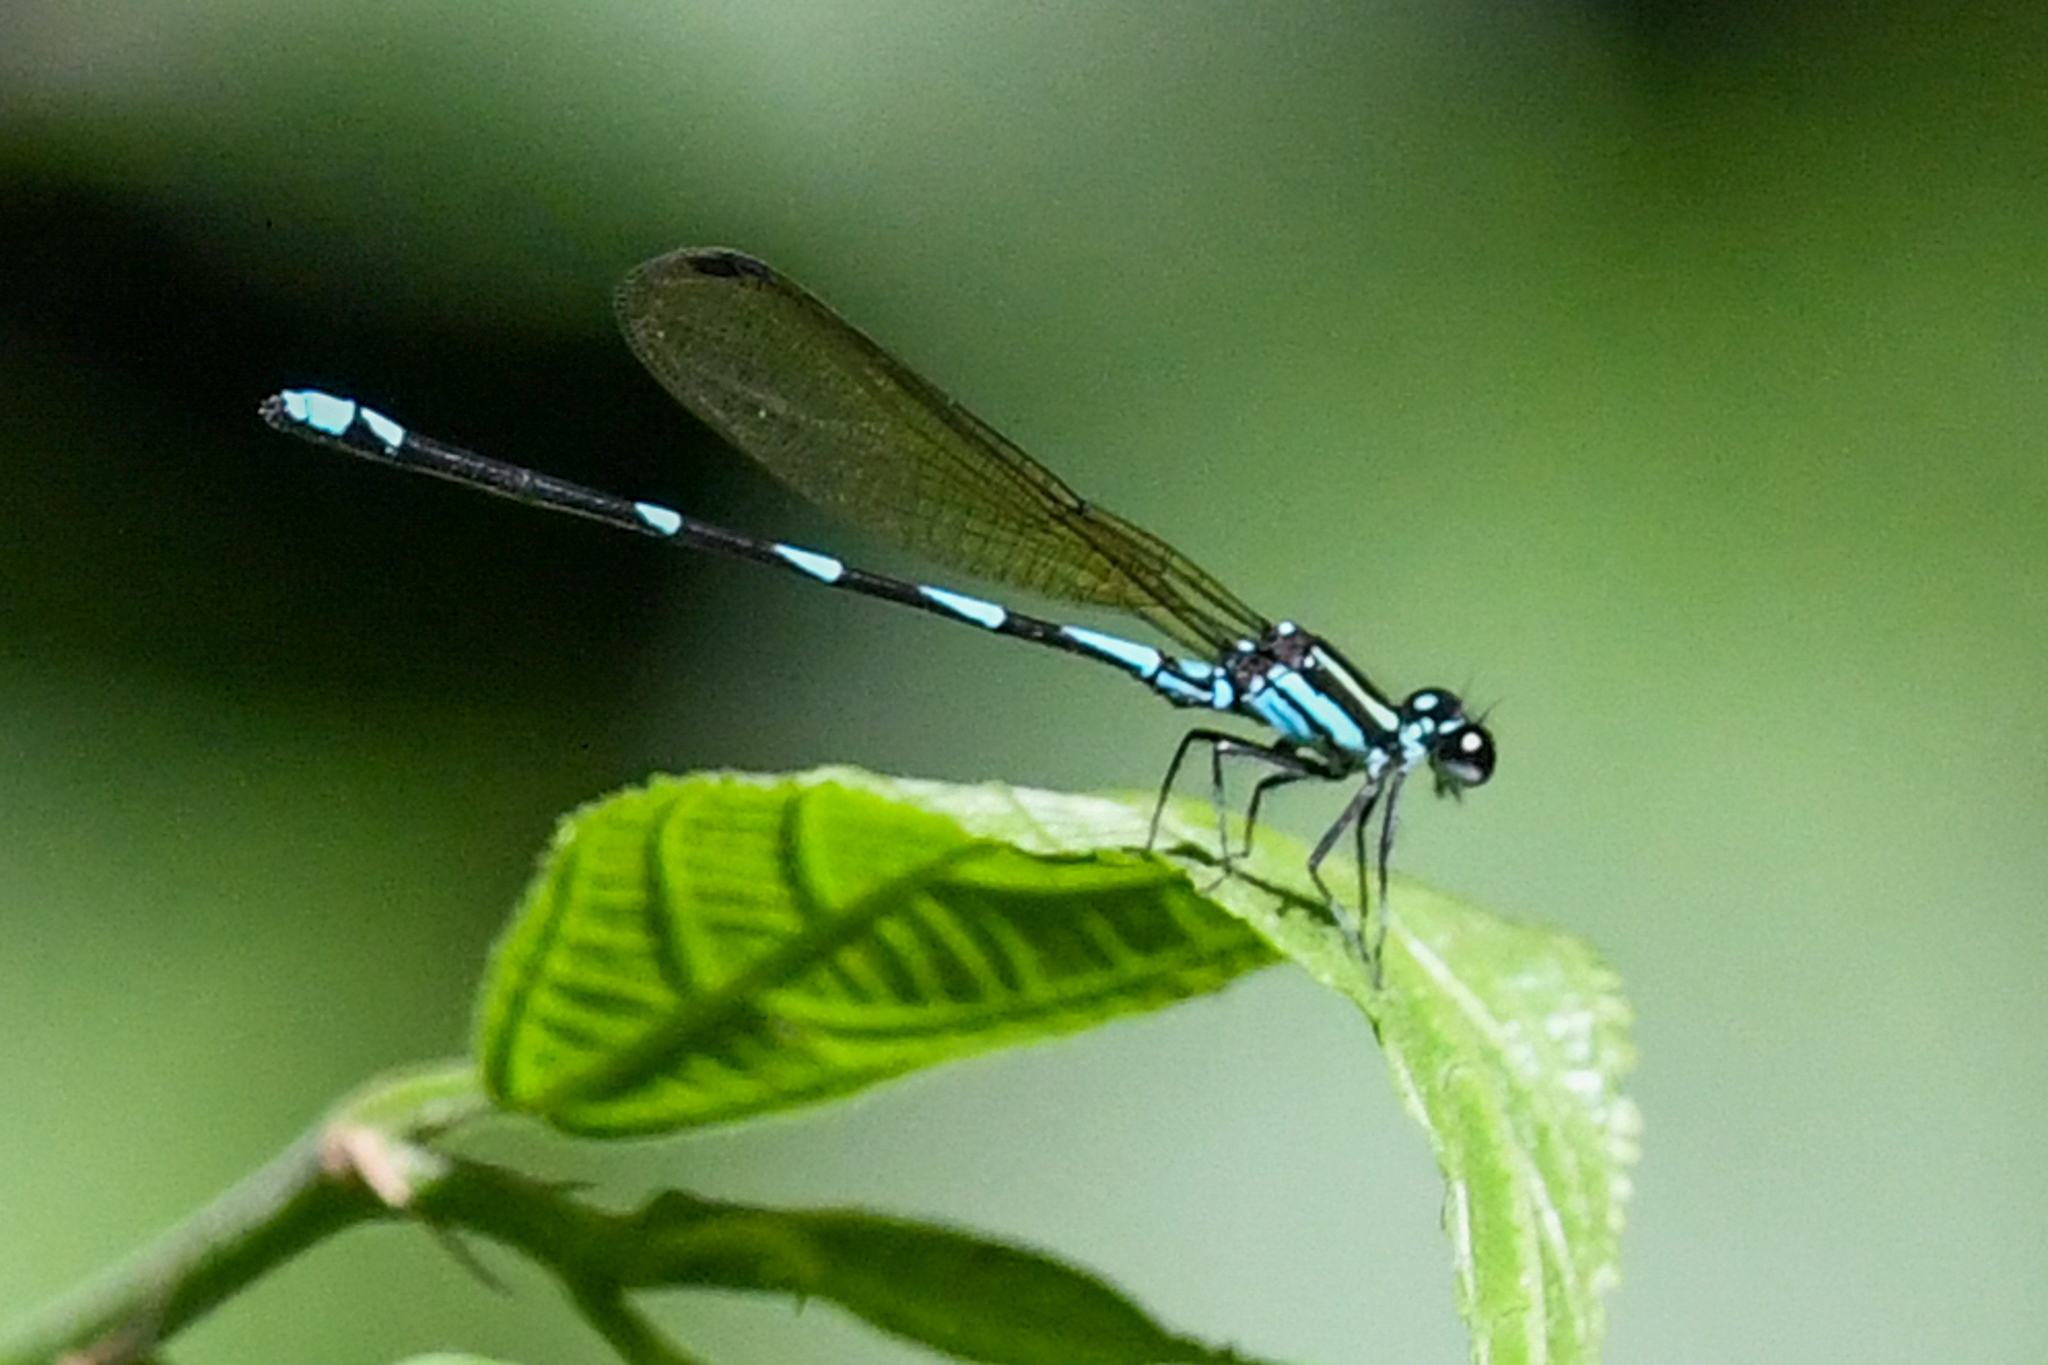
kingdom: Animalia
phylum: Arthropoda
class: Insecta
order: Odonata
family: Coenagrionidae
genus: Argia
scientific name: Argia adamsi
